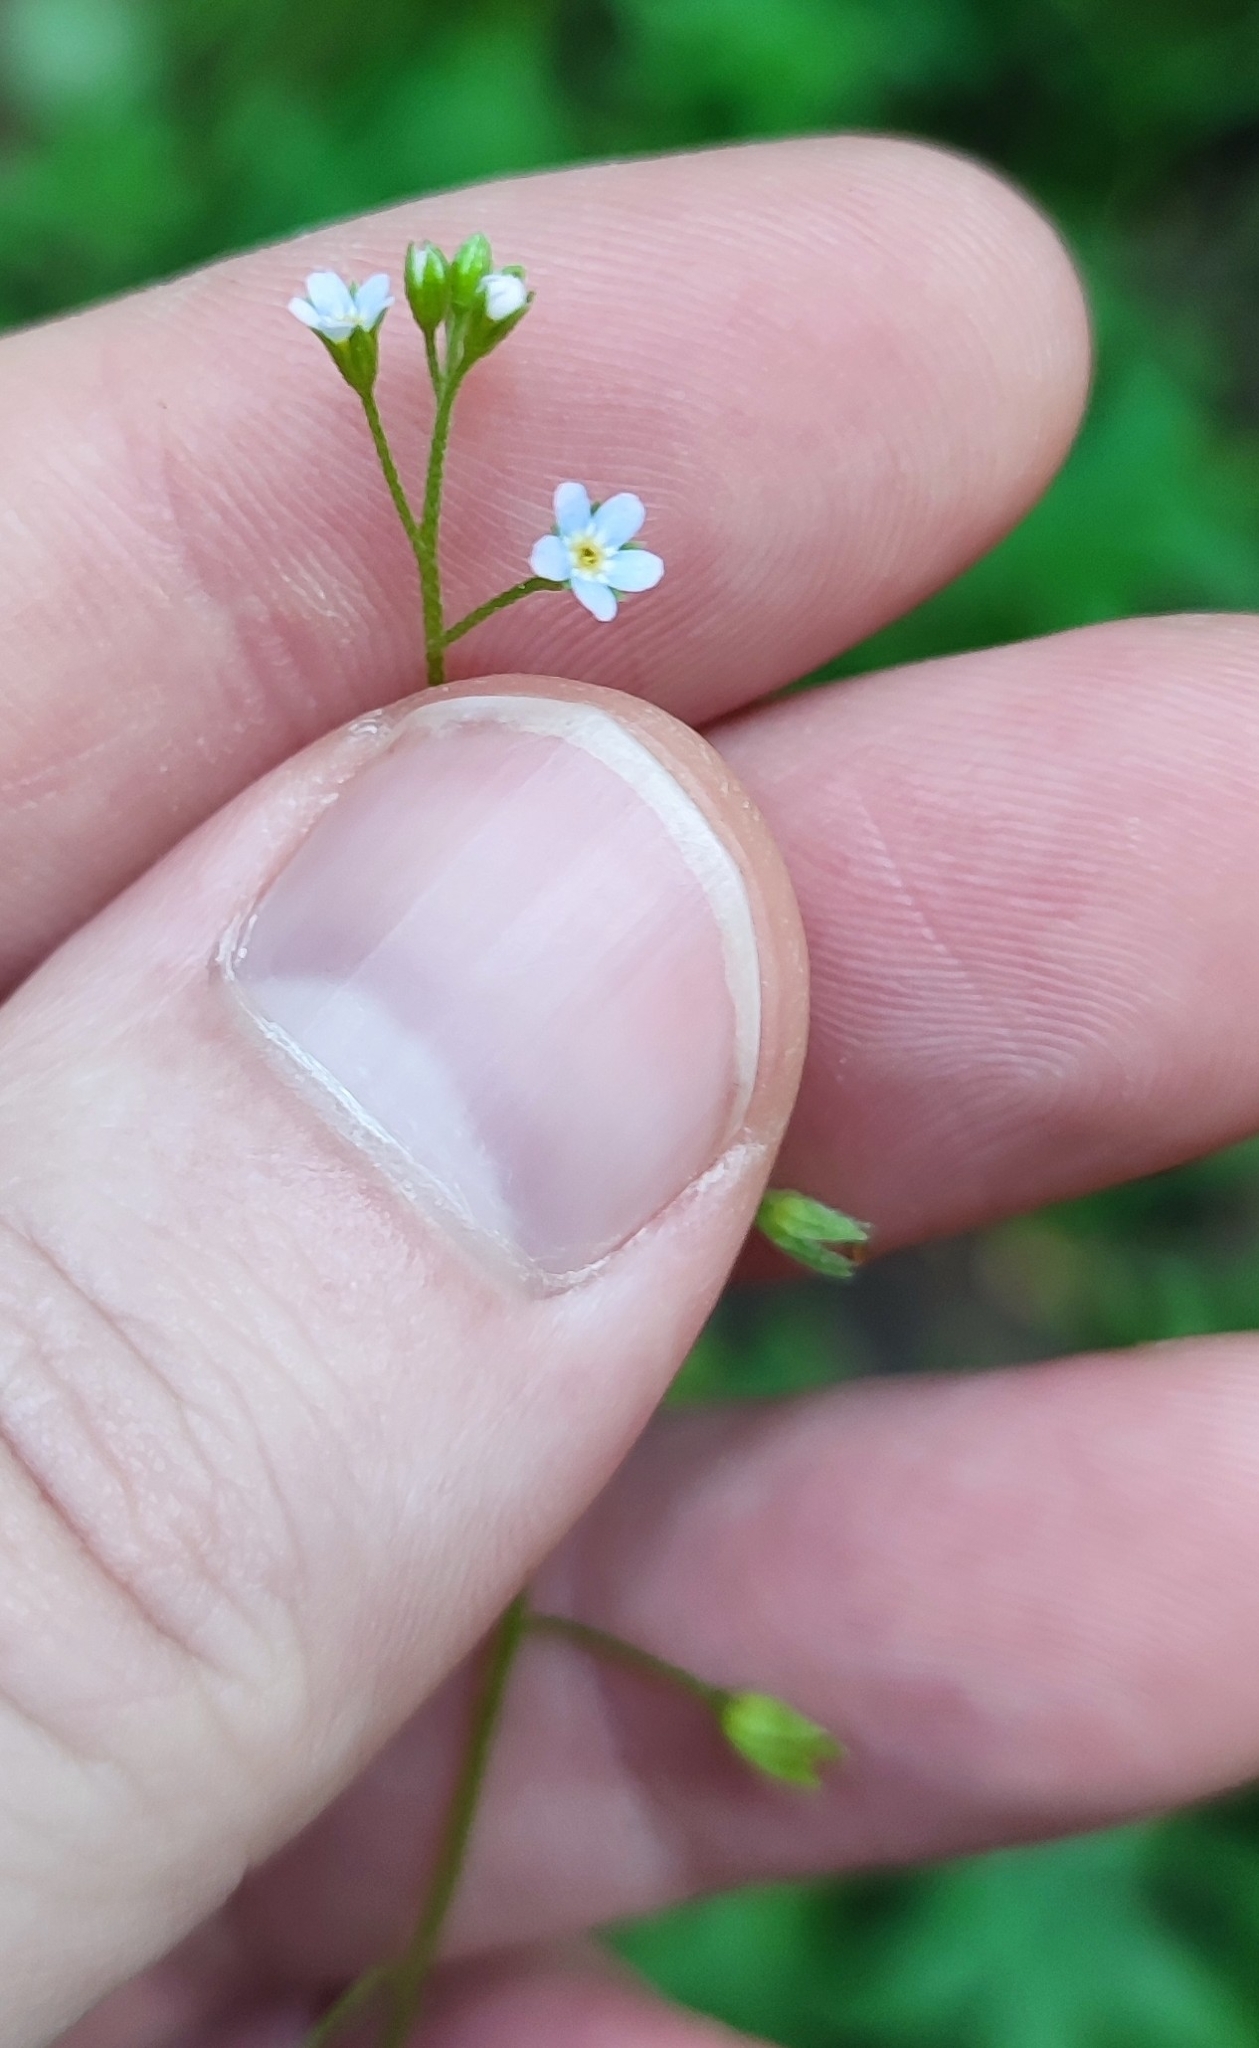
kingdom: Plantae
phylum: Tracheophyta
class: Magnoliopsida
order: Boraginales
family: Boraginaceae
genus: Myosotis
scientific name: Myosotis laxa
